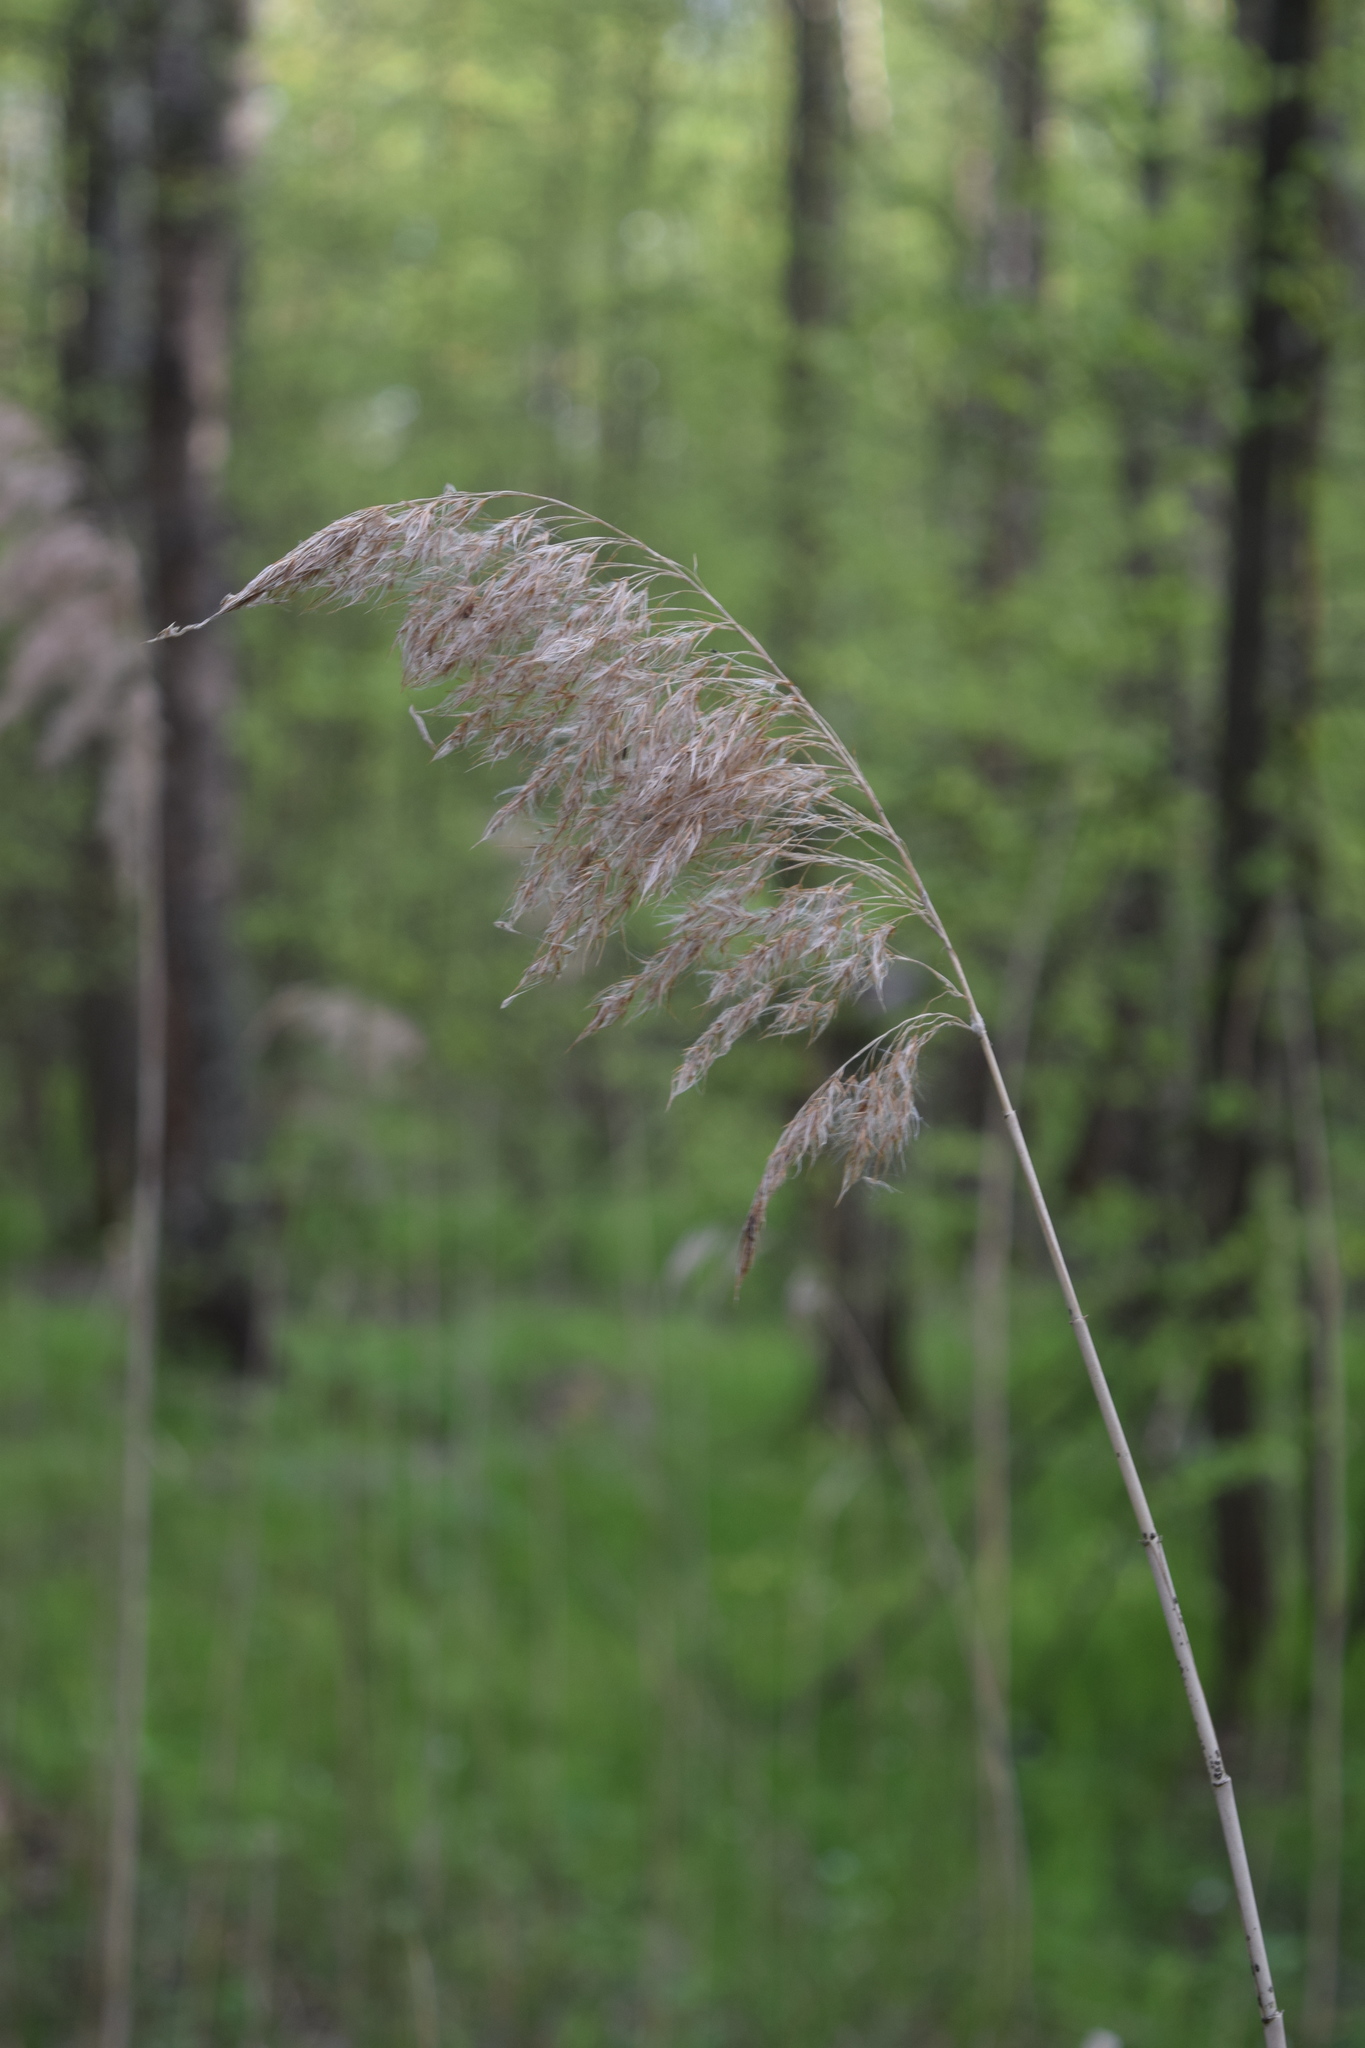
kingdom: Plantae
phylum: Tracheophyta
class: Liliopsida
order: Poales
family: Poaceae
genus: Phragmites
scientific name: Phragmites australis
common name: Common reed
